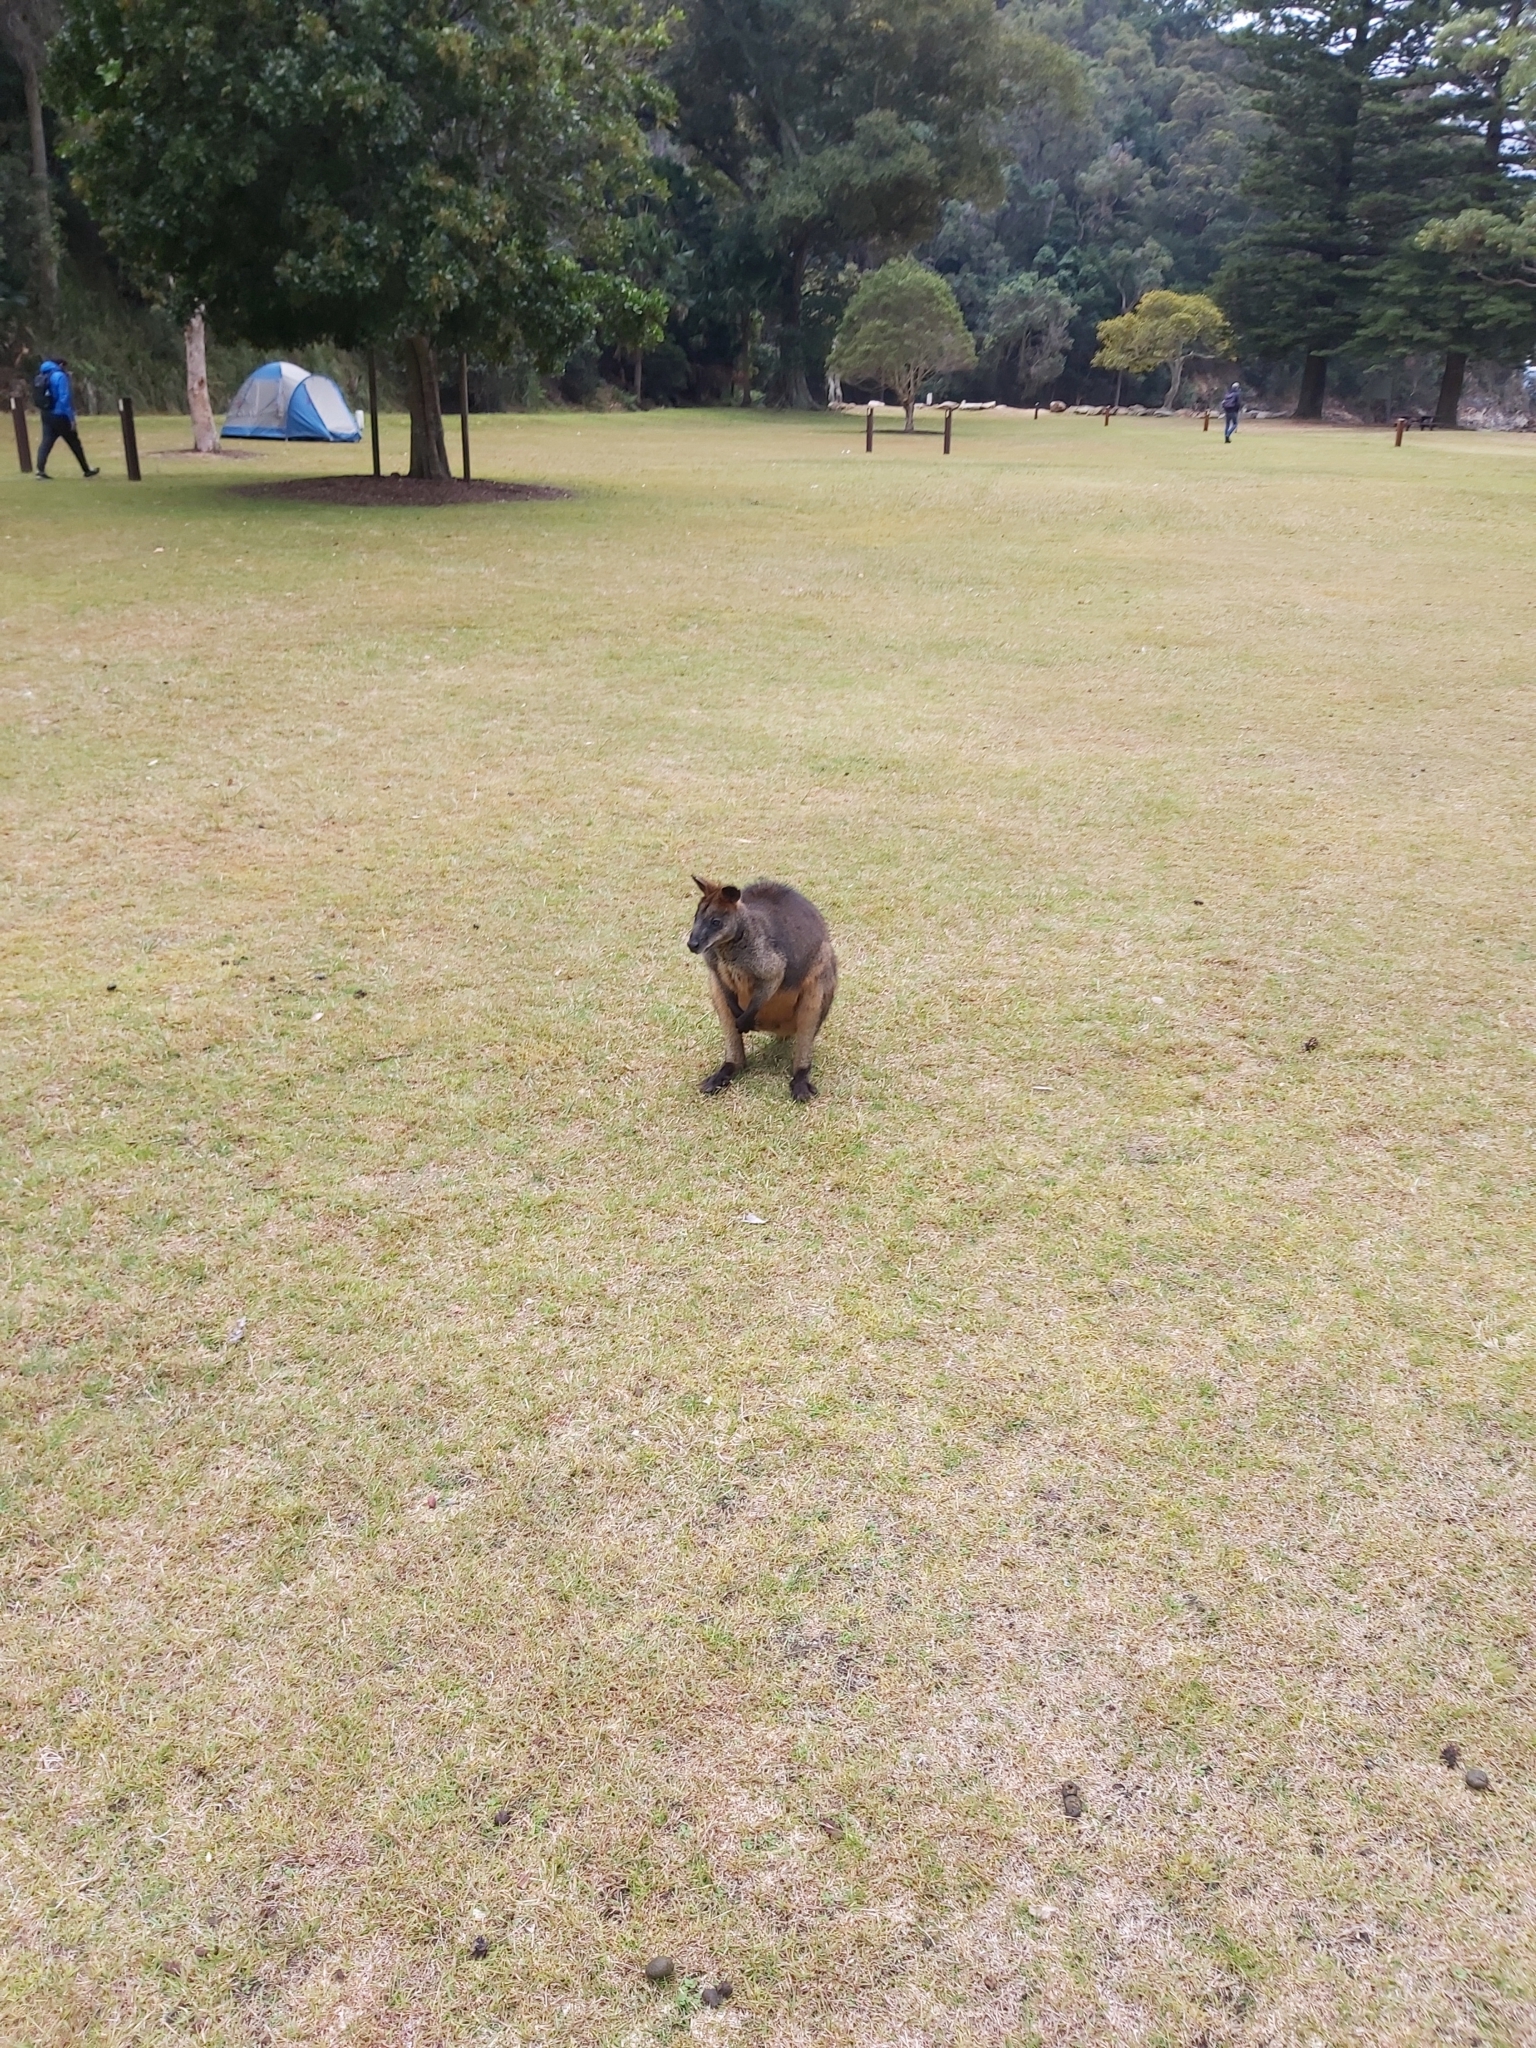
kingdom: Animalia
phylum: Chordata
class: Mammalia
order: Diprotodontia
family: Macropodidae
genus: Wallabia
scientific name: Wallabia bicolor
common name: Swamp wallaby
